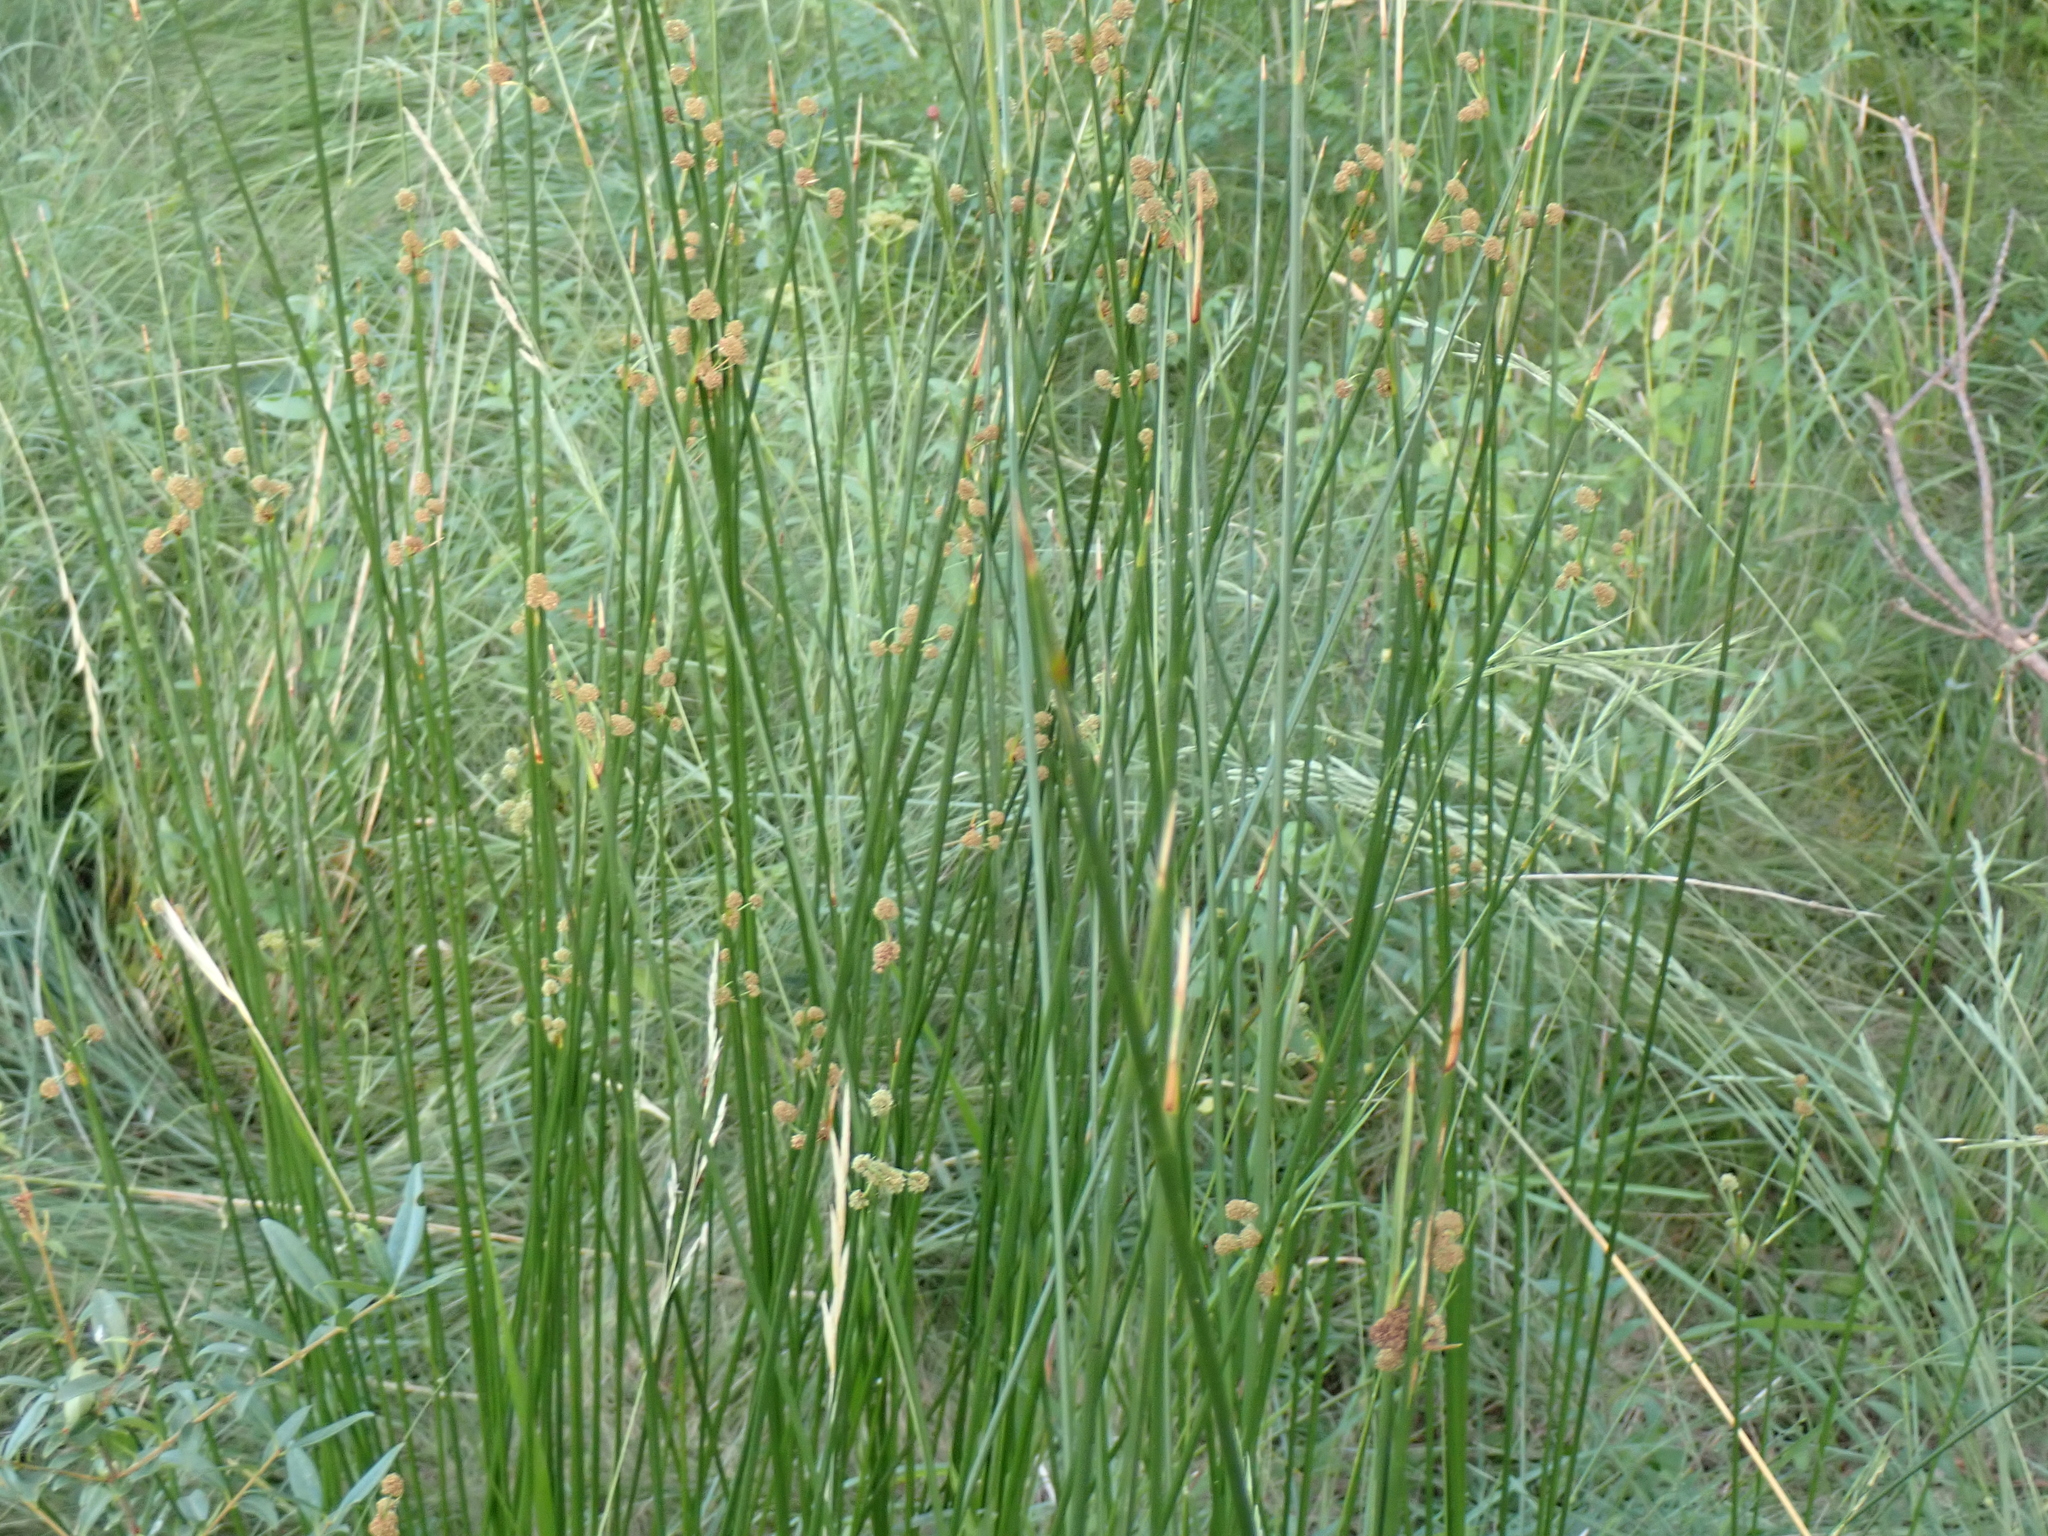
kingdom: Plantae
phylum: Tracheophyta
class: Liliopsida
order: Poales
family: Cyperaceae
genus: Scirpoides
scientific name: Scirpoides holoschoenus
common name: Round-headed club-rush
